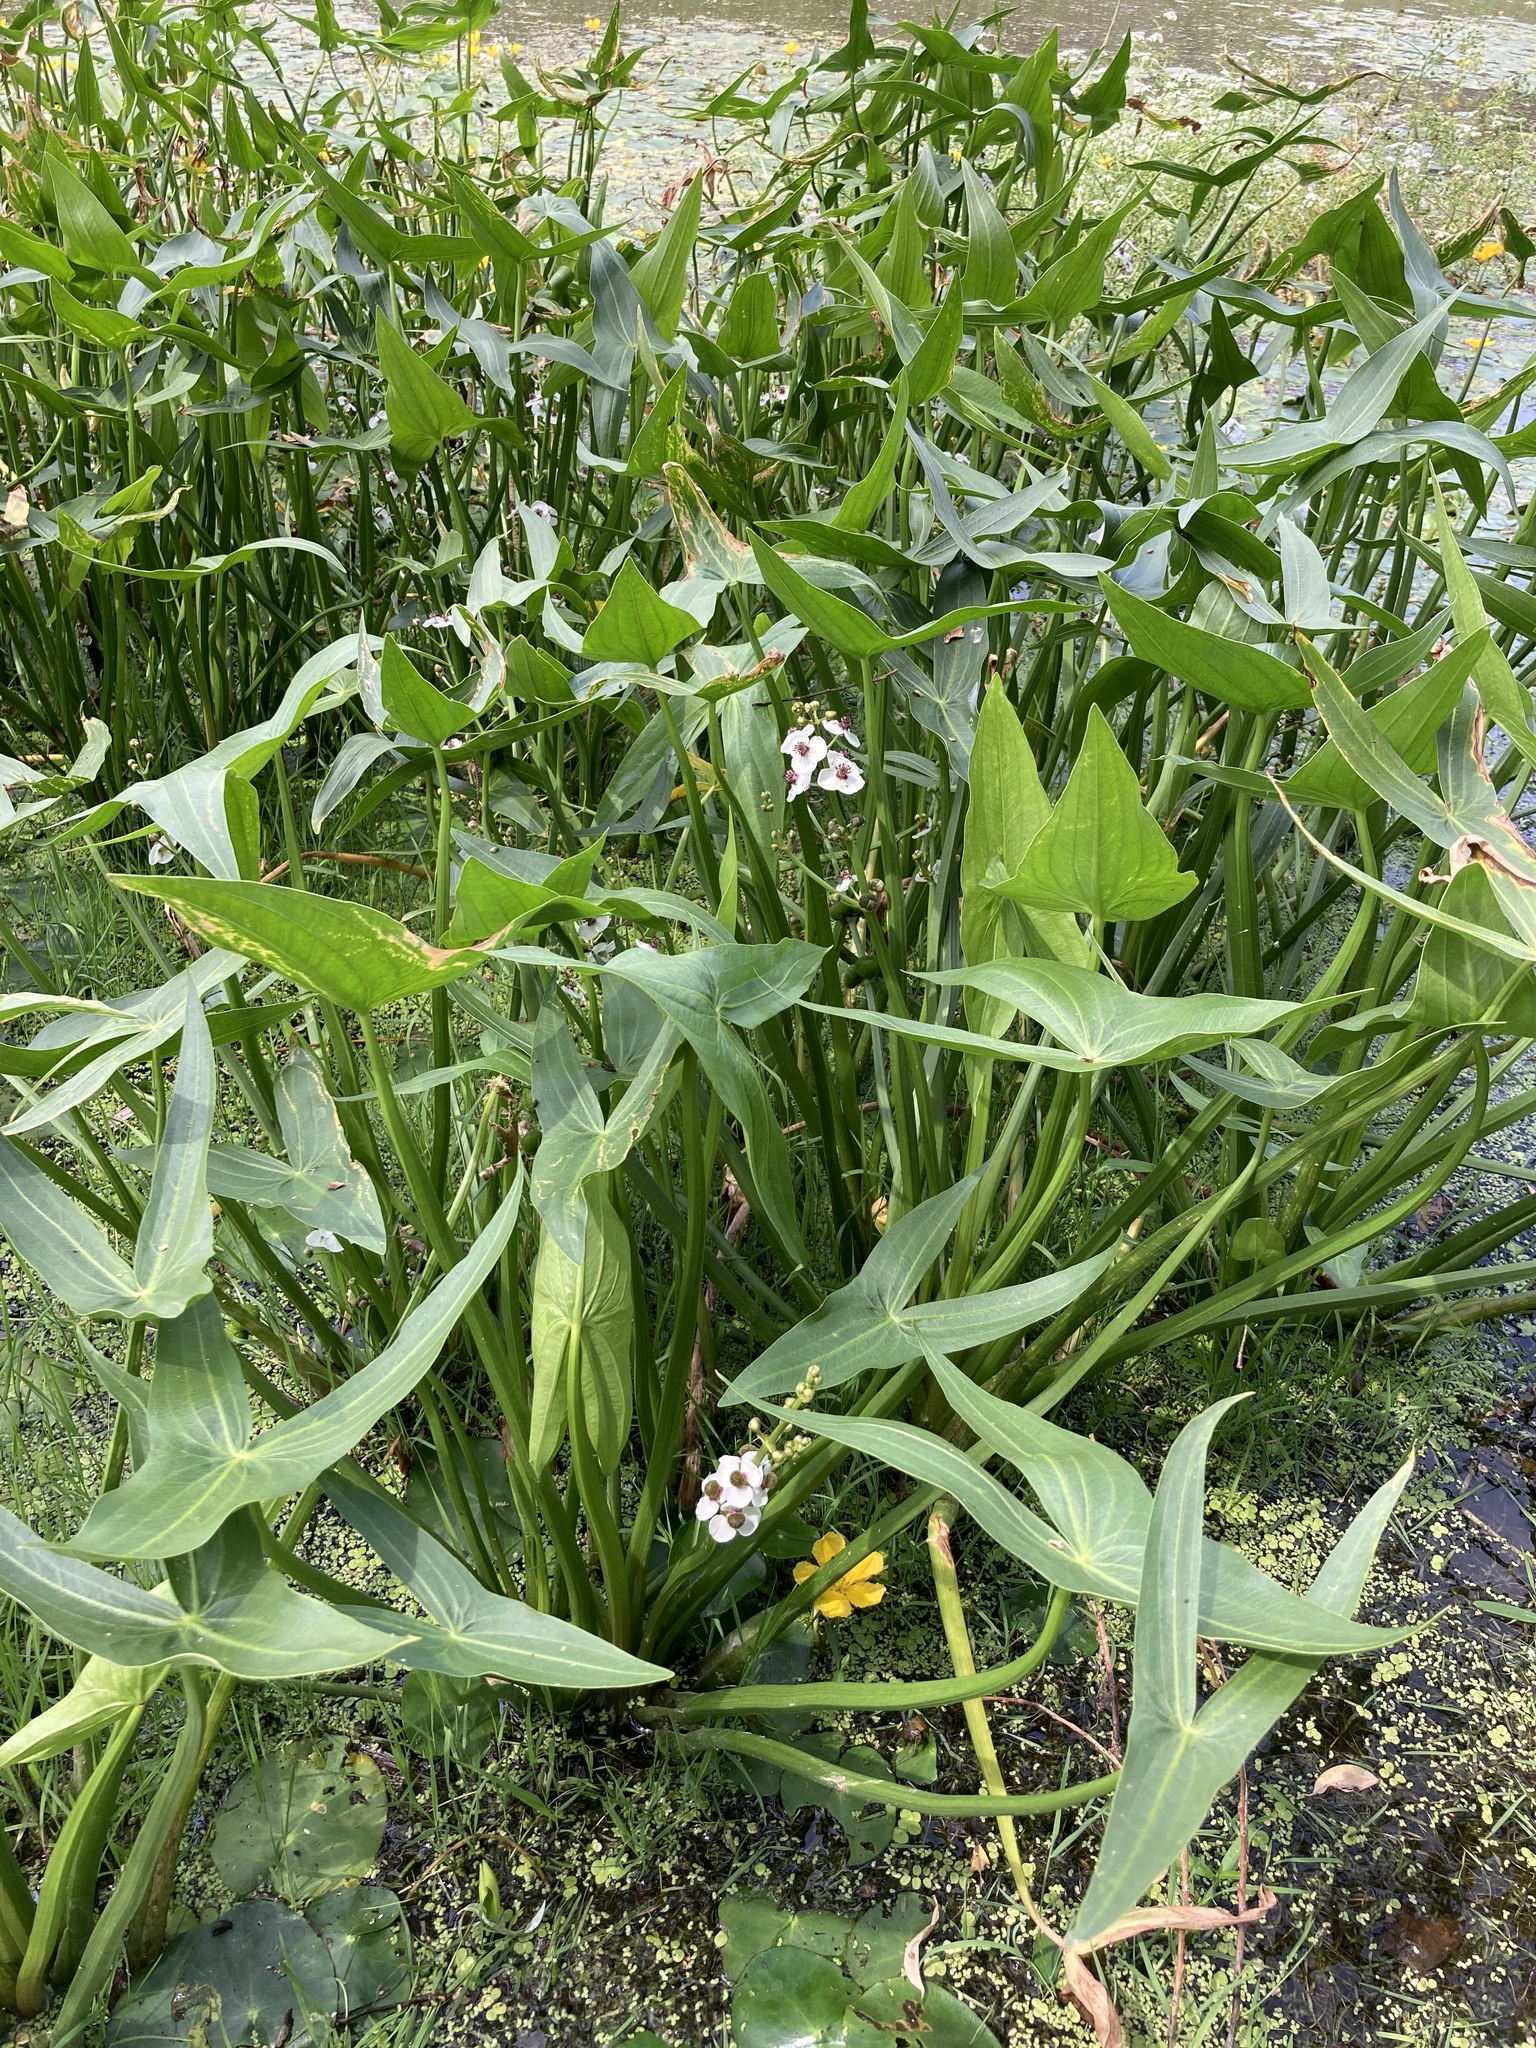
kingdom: Plantae
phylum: Tracheophyta
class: Liliopsida
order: Alismatales
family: Alismataceae
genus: Sagittaria
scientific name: Sagittaria sagittifolia
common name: Arrowhead
